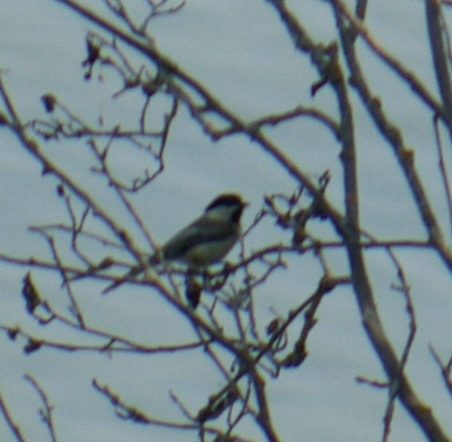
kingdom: Animalia
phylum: Chordata
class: Aves
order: Passeriformes
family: Paridae
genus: Poecile
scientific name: Poecile atricapillus
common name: Black-capped chickadee
